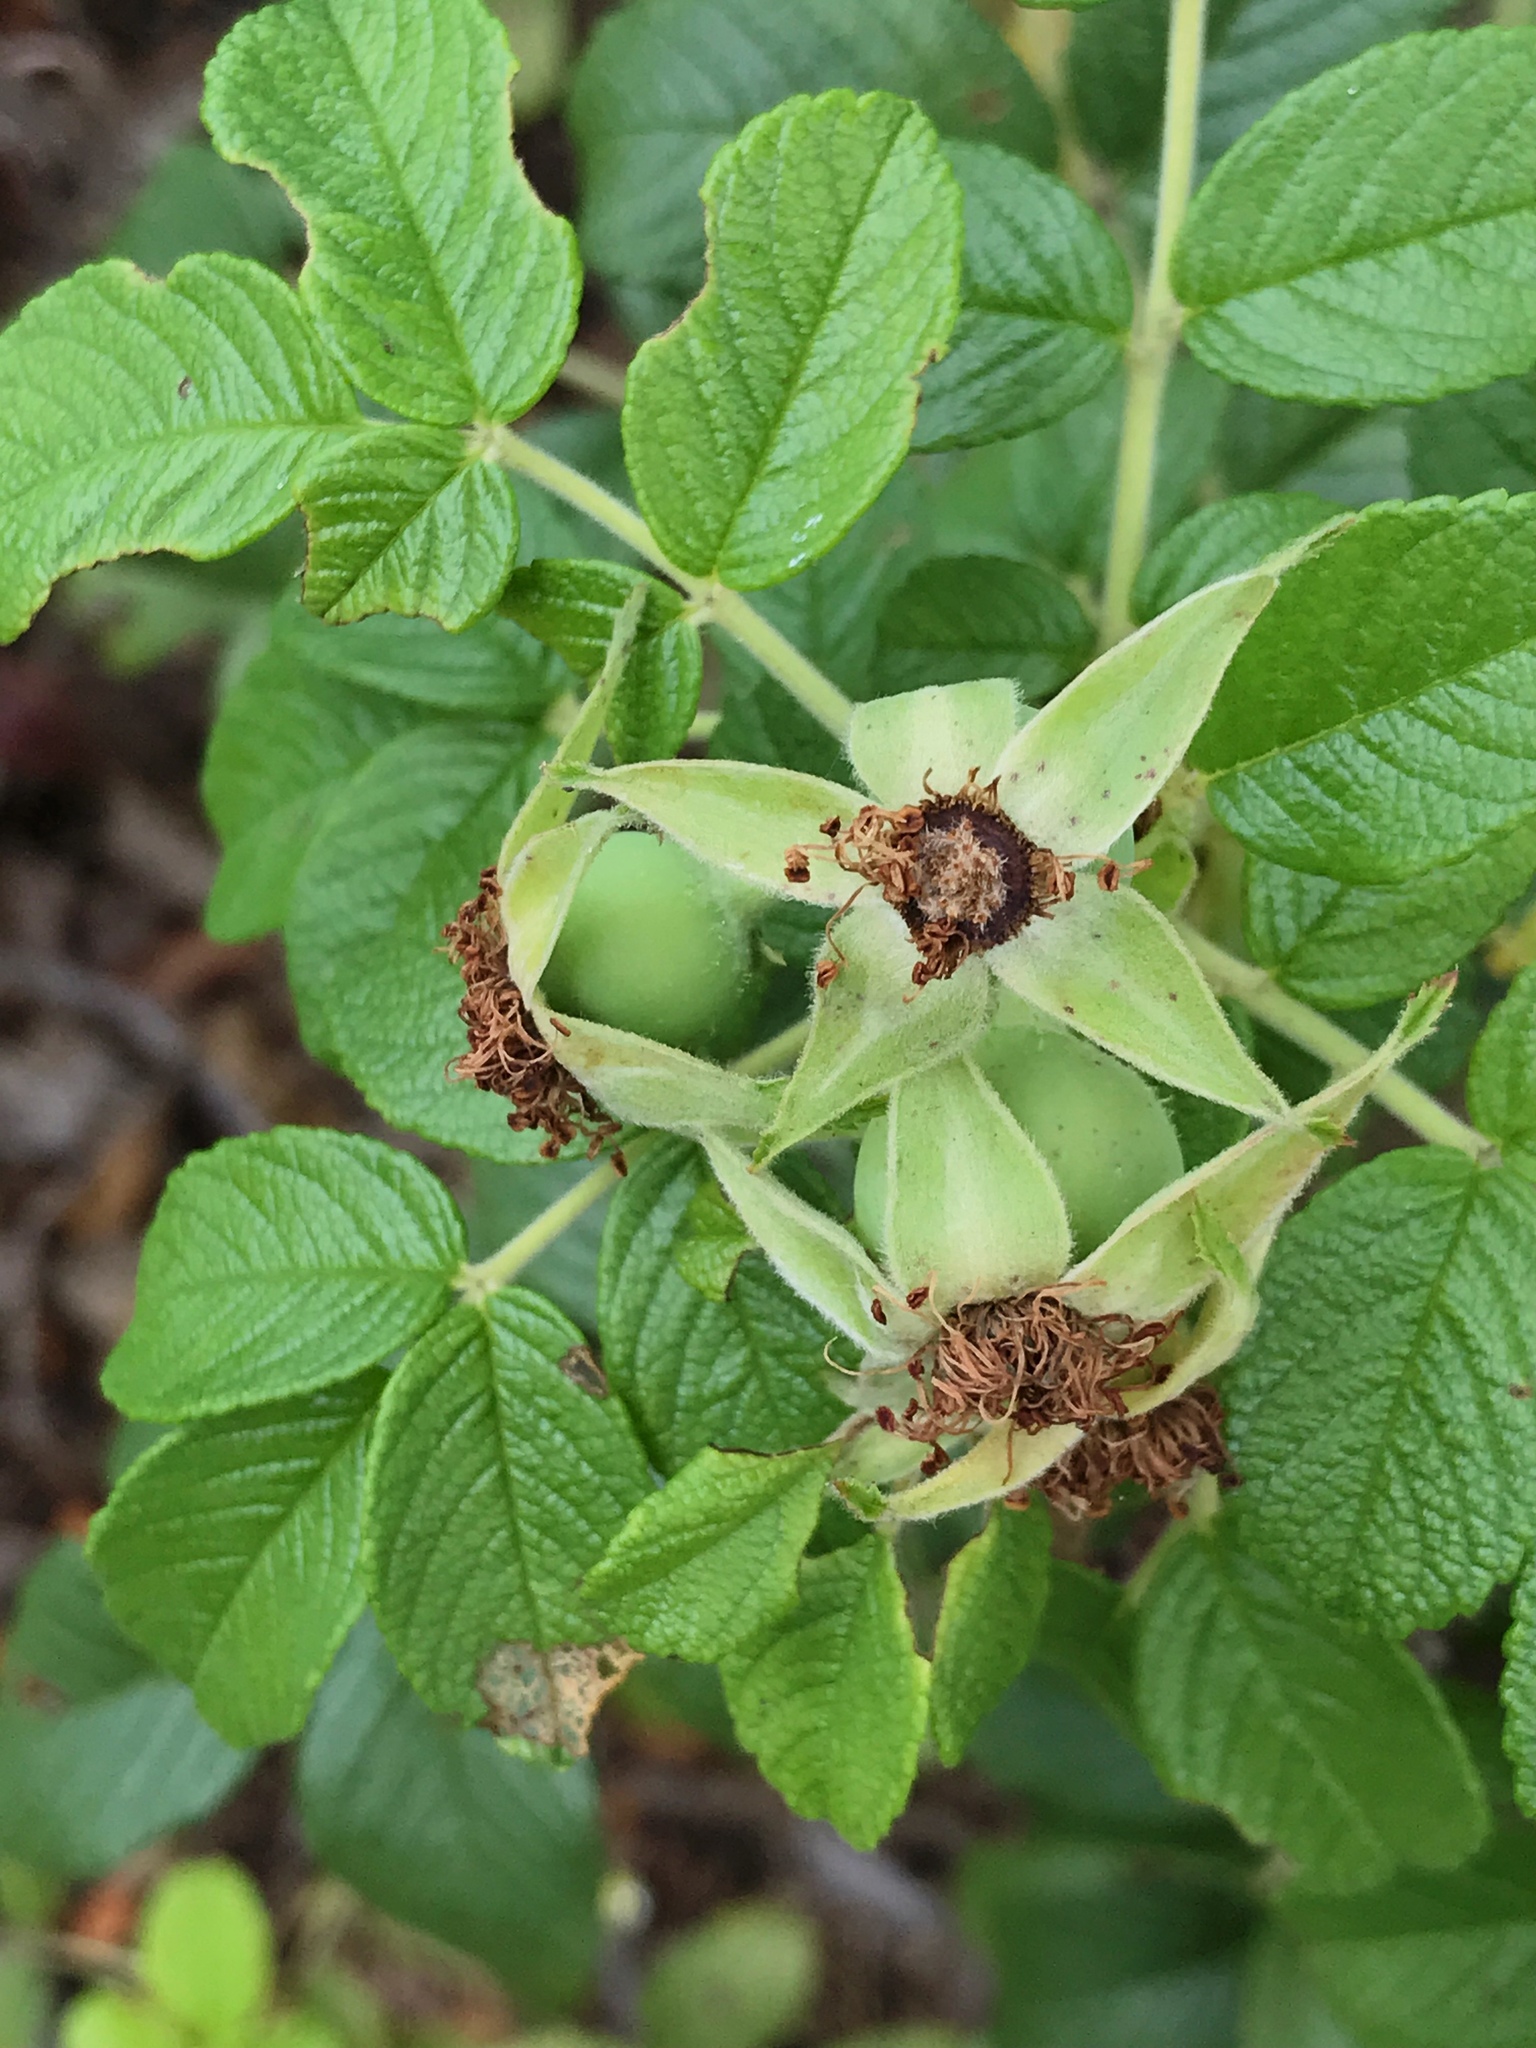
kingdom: Plantae
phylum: Tracheophyta
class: Magnoliopsida
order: Rosales
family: Rosaceae
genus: Rosa
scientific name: Rosa rugosa
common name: Japanese rose
